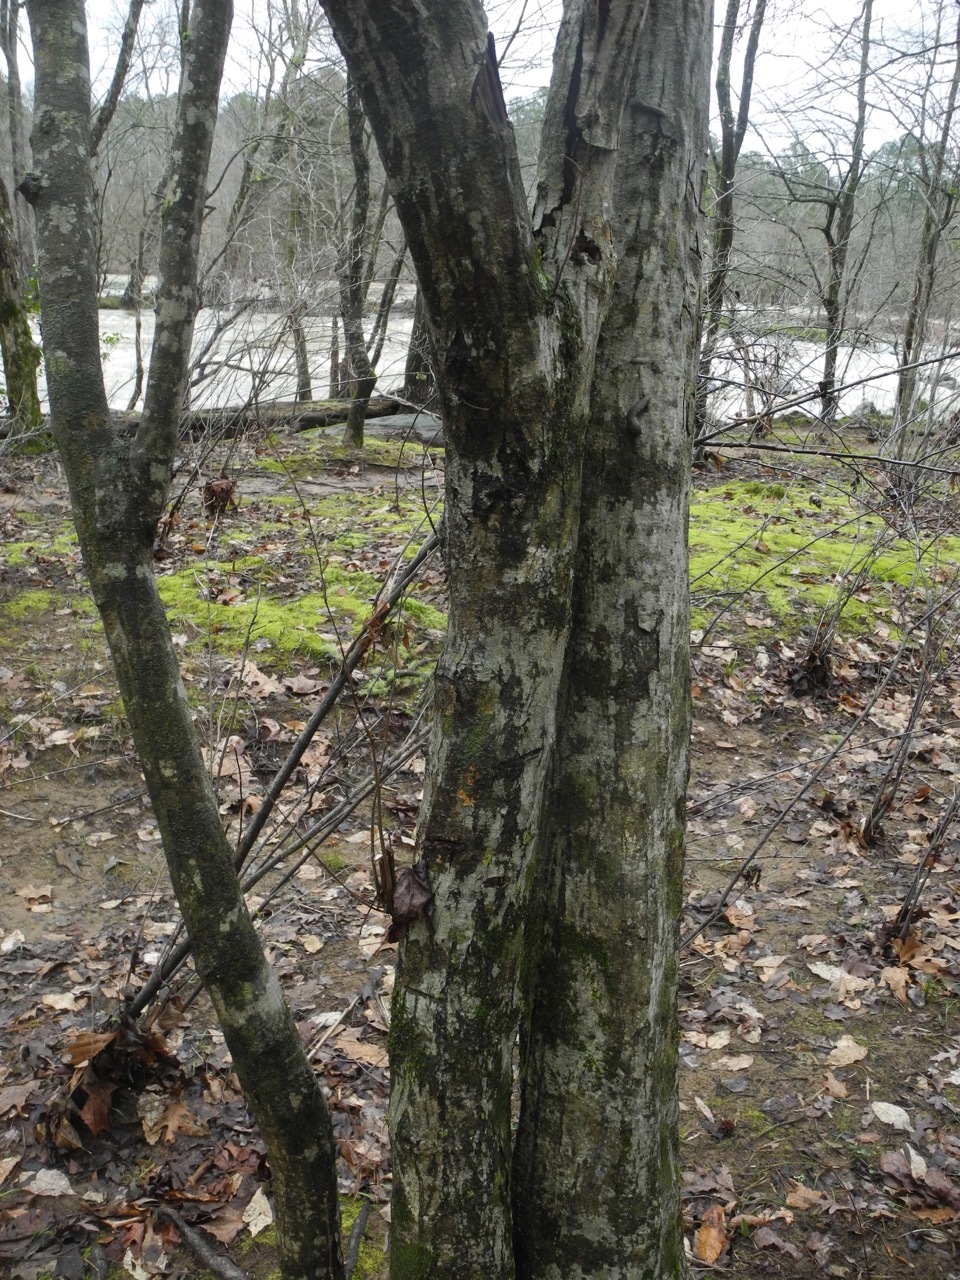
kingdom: Plantae
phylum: Tracheophyta
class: Magnoliopsida
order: Fagales
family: Betulaceae
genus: Carpinus
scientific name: Carpinus caroliniana
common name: American hornbeam
